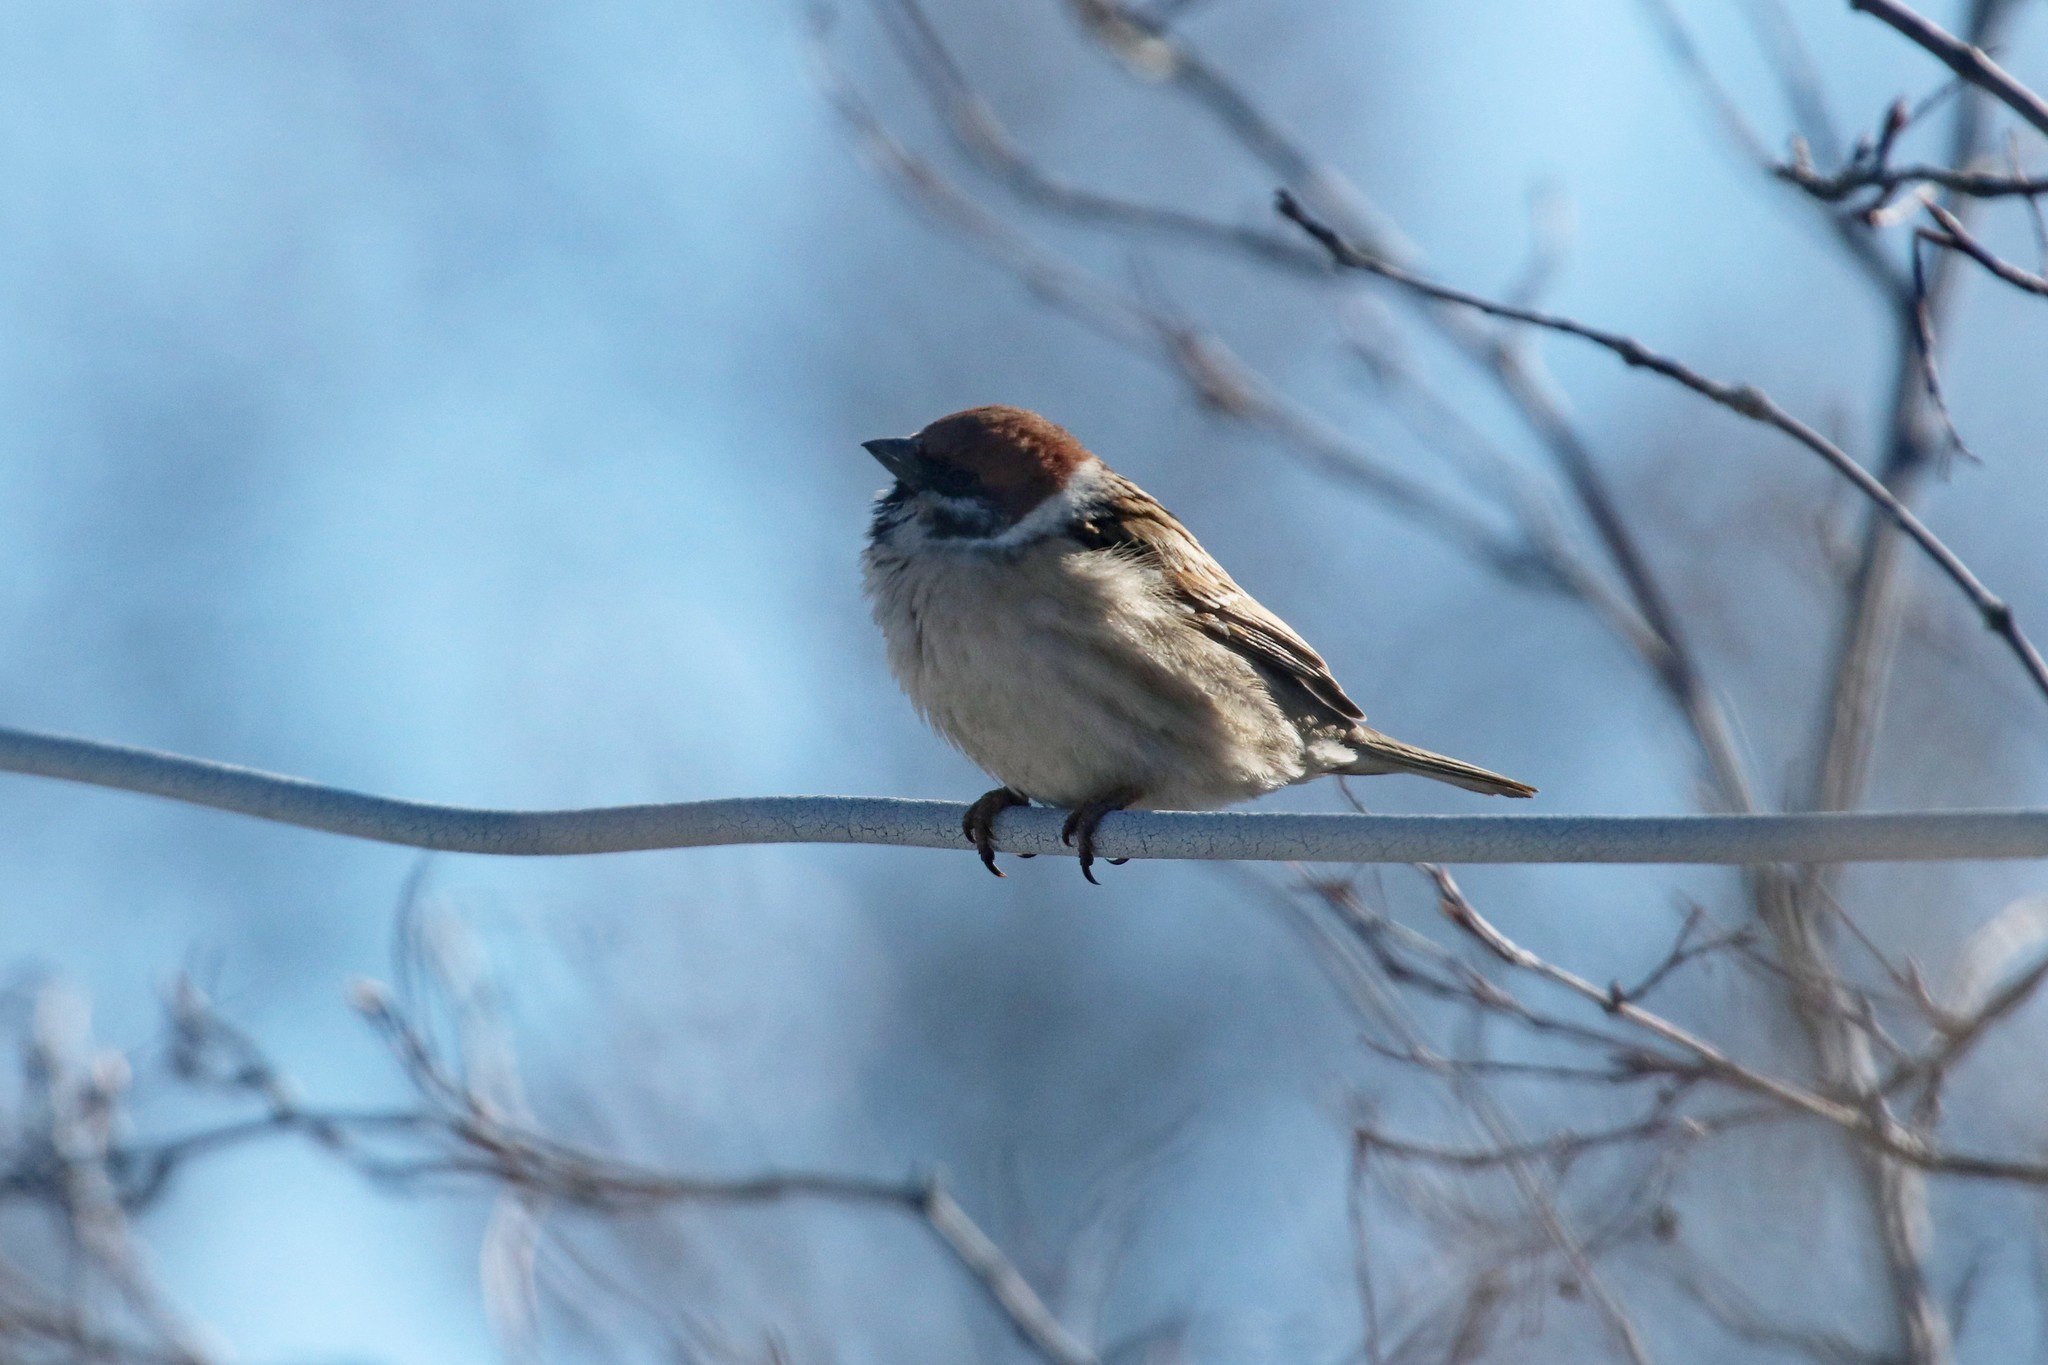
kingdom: Animalia
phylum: Chordata
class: Aves
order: Passeriformes
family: Passeridae
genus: Passer
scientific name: Passer montanus
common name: Eurasian tree sparrow
